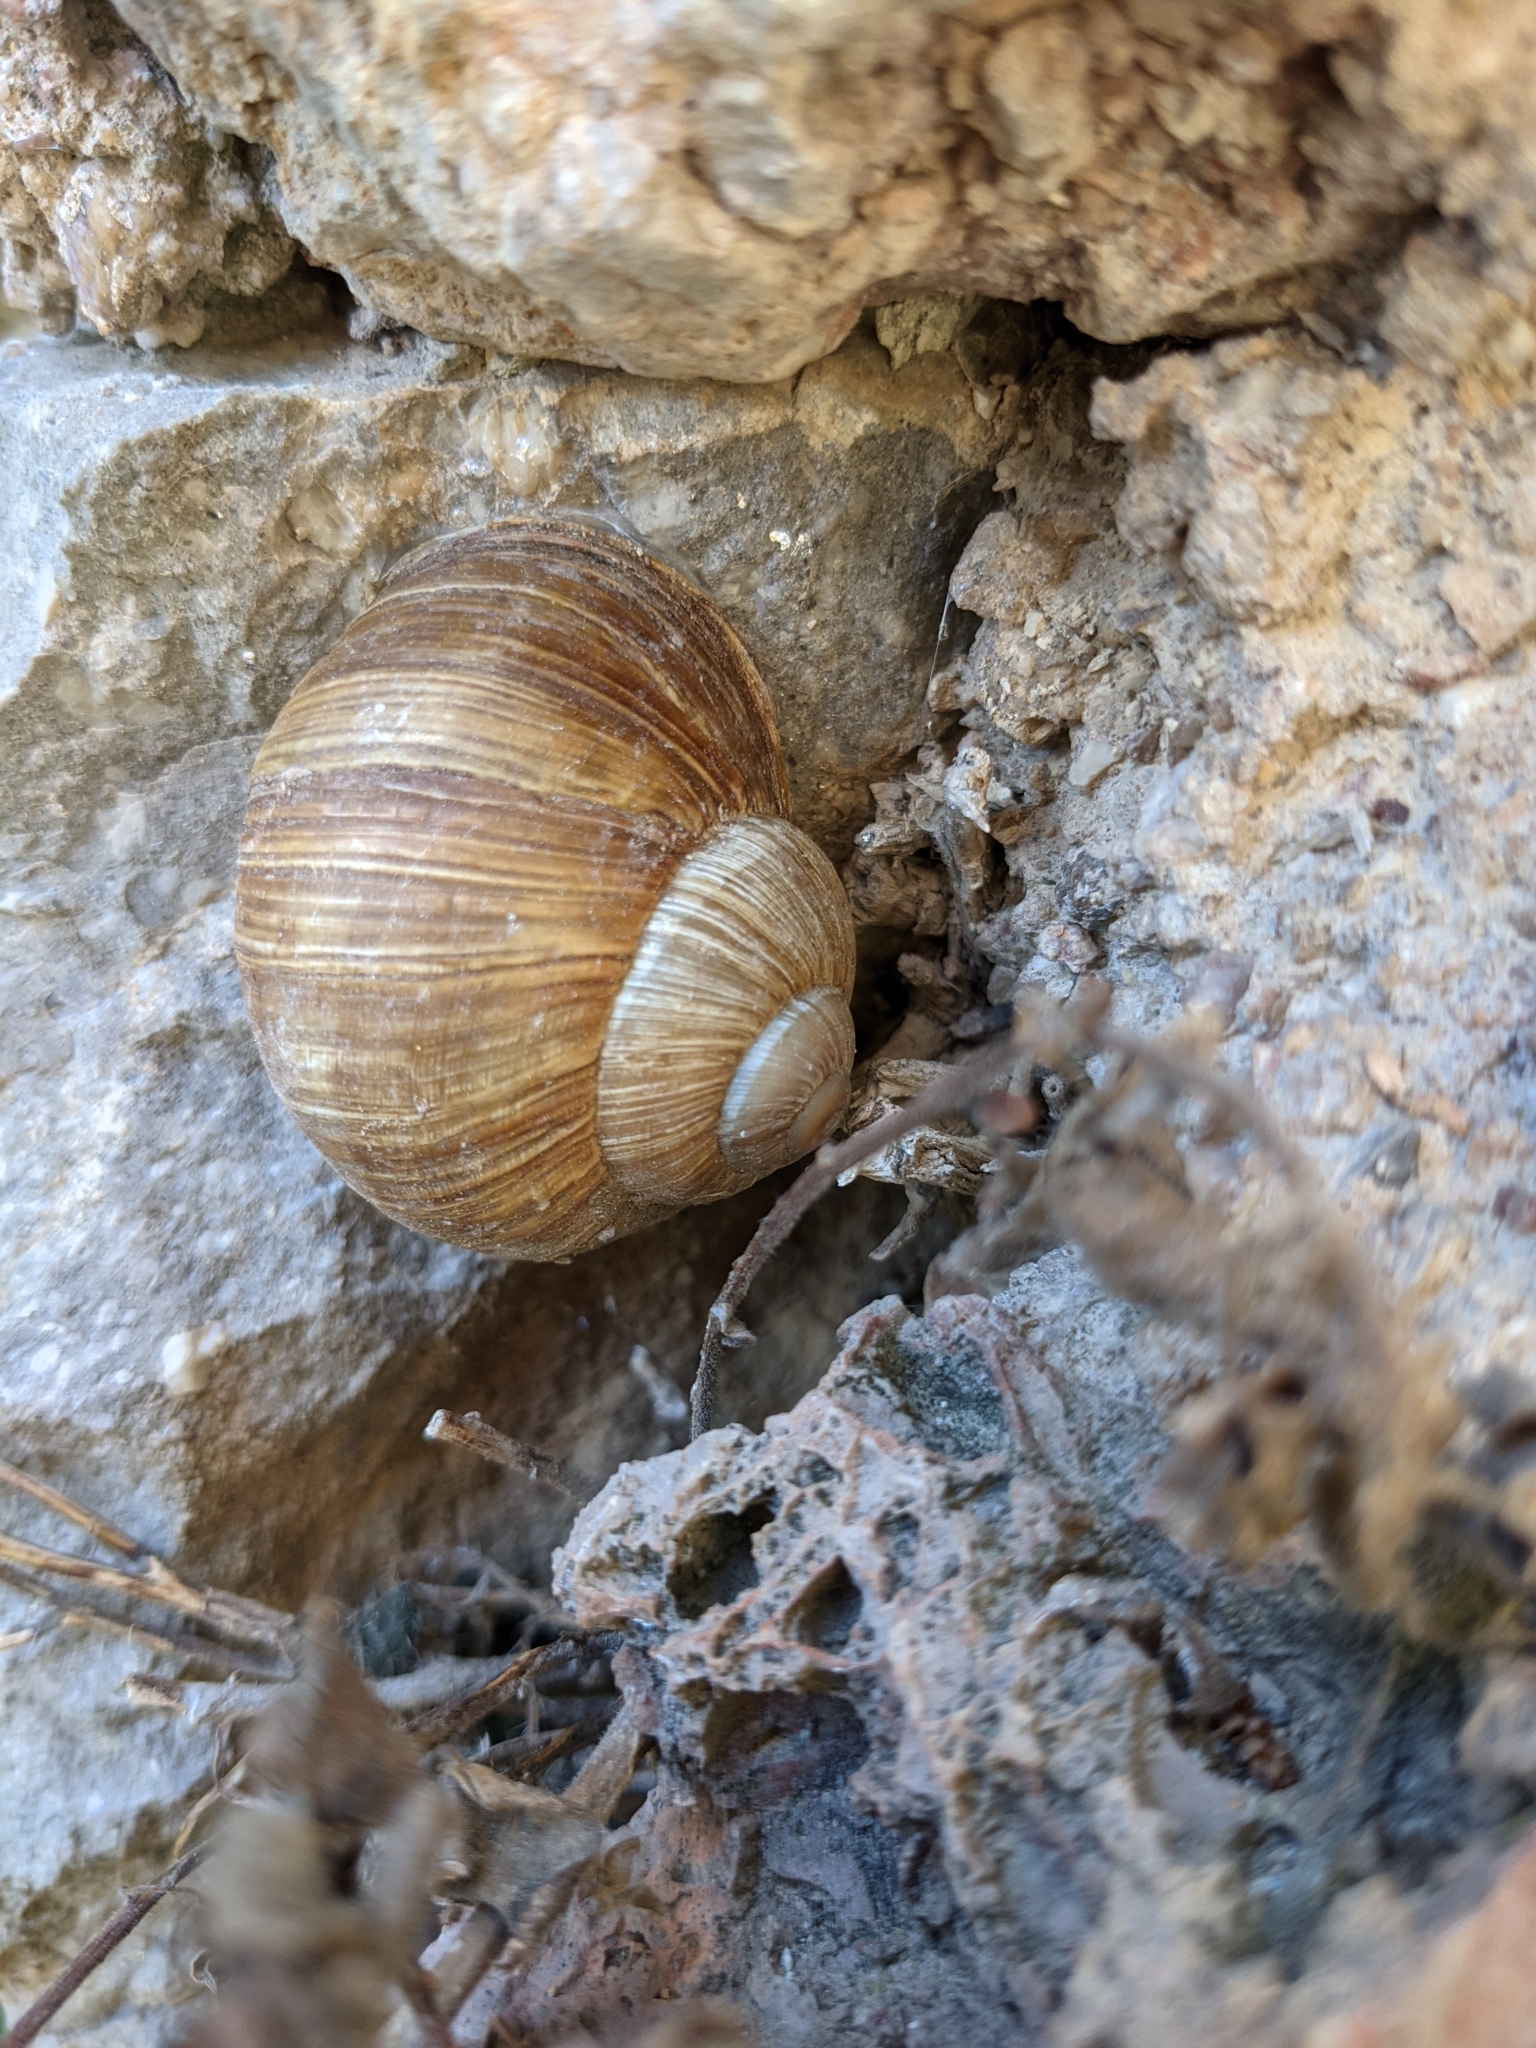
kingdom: Animalia
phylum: Mollusca
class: Gastropoda
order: Stylommatophora
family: Helicidae
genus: Helix
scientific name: Helix pomatia
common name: Roman snail
